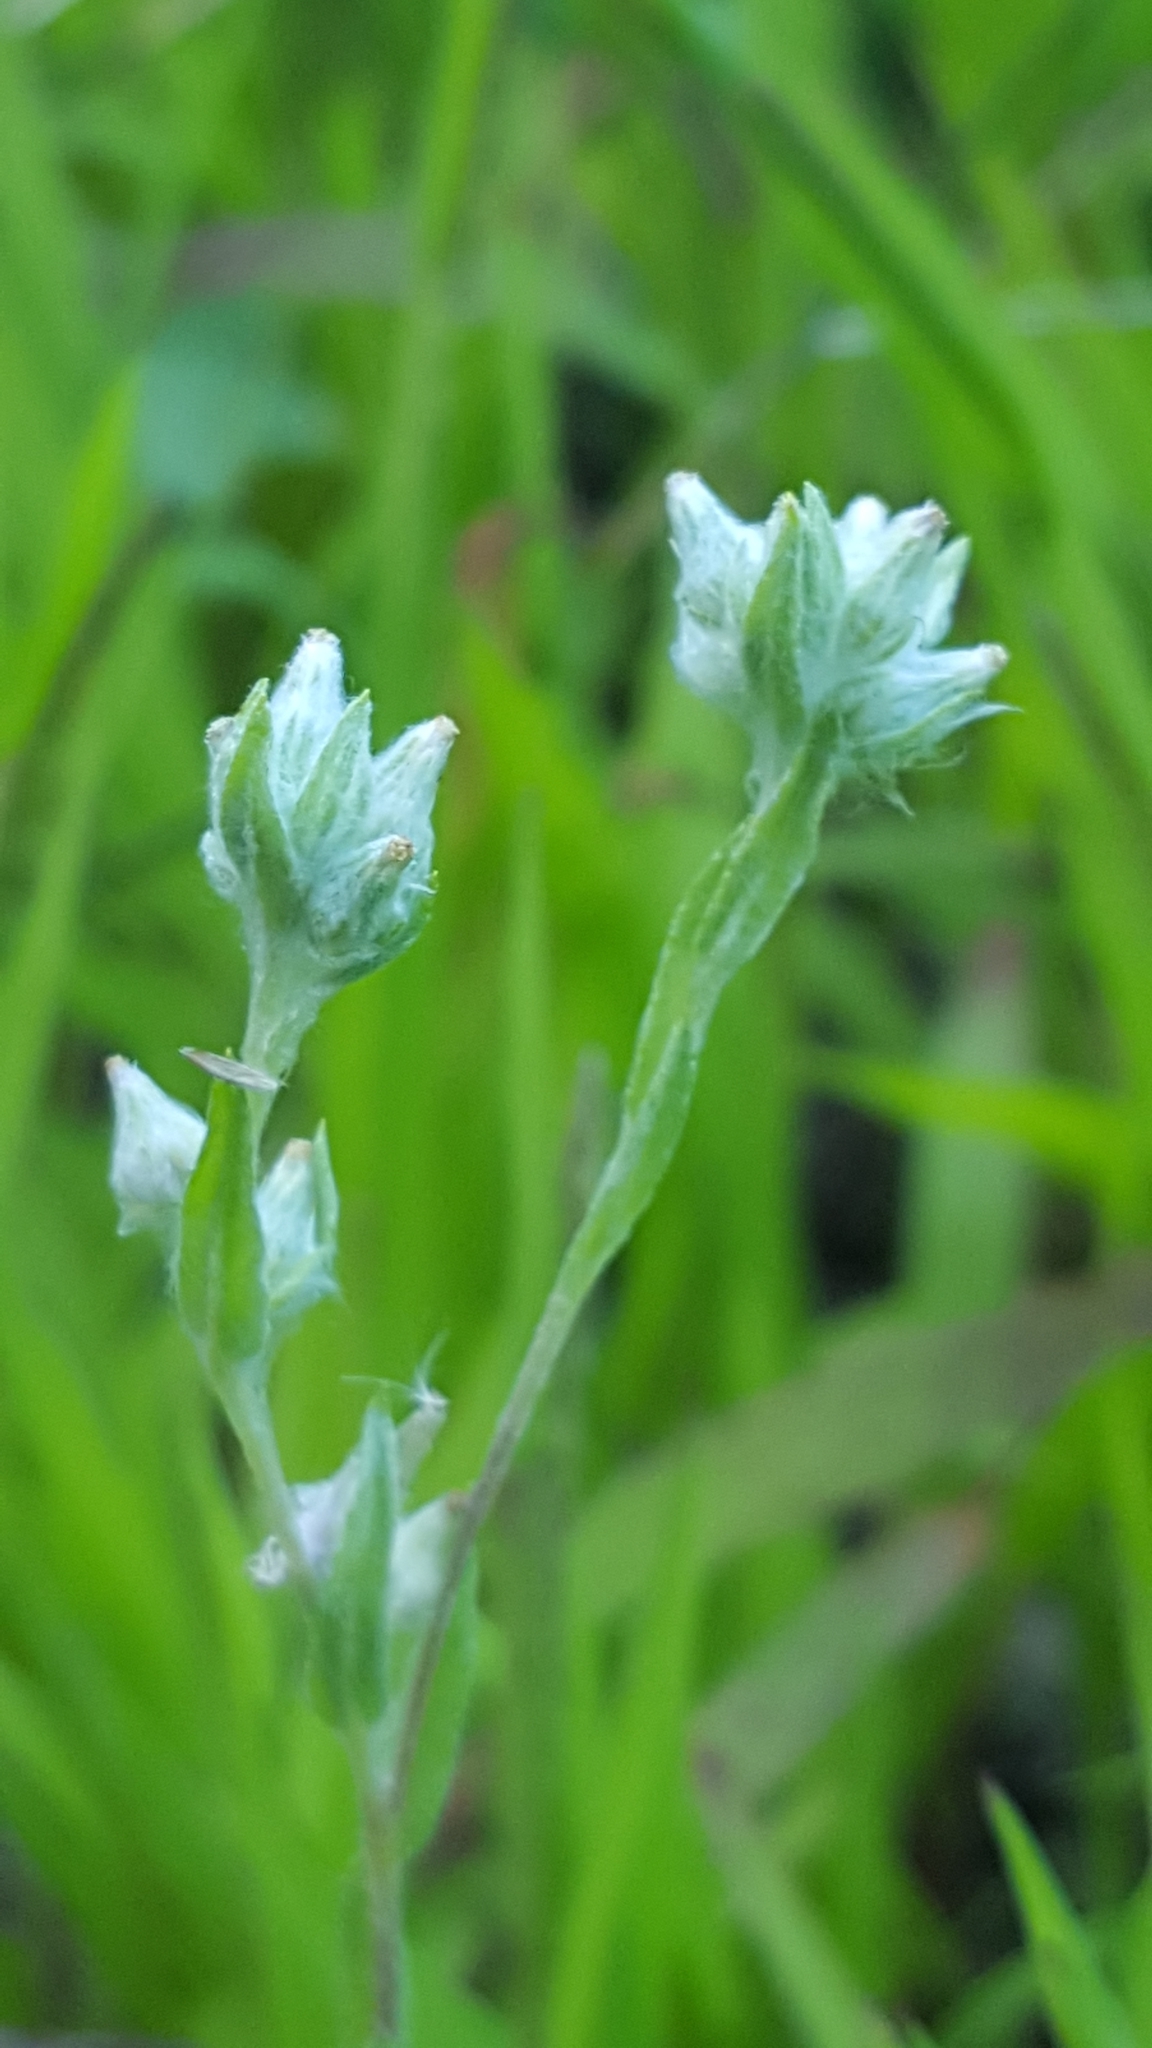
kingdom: Plantae
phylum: Tracheophyta
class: Magnoliopsida
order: Asterales
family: Asteraceae
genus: Pseudognaphalium
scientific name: Pseudognaphalium macounii
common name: Clammy cudweed
